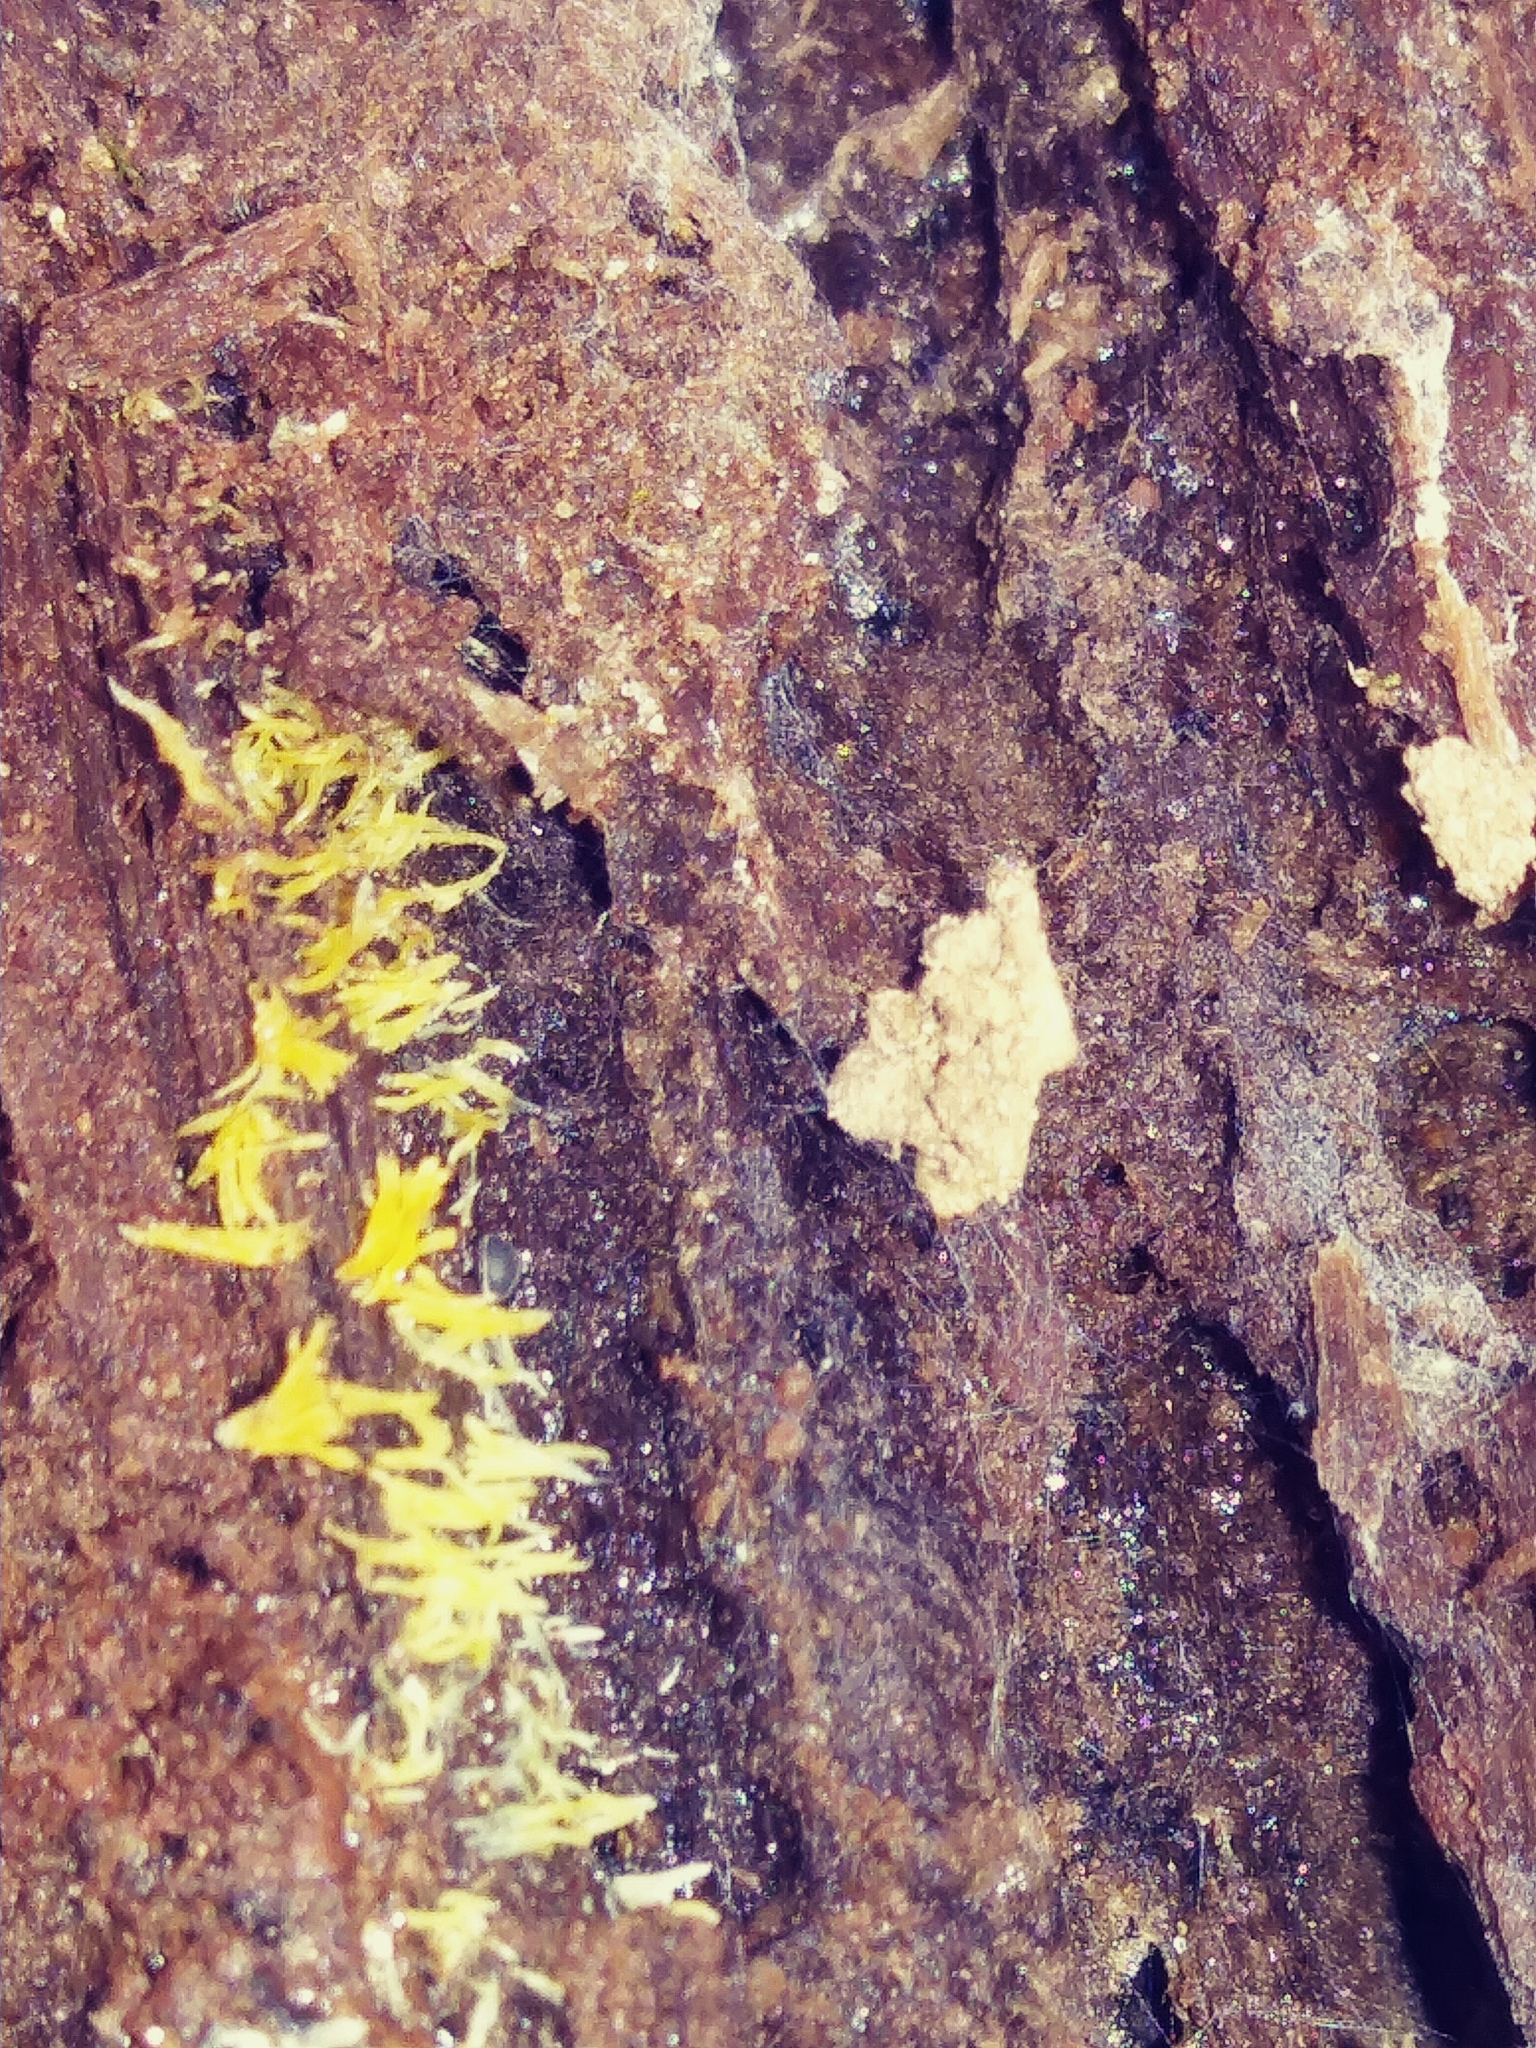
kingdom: Fungi
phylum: Basidiomycota
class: Dacrymycetes
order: Dacrymycetales
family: Dacrymycetaceae
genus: Calocera
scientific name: Calocera cornea
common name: Small stagshorn
